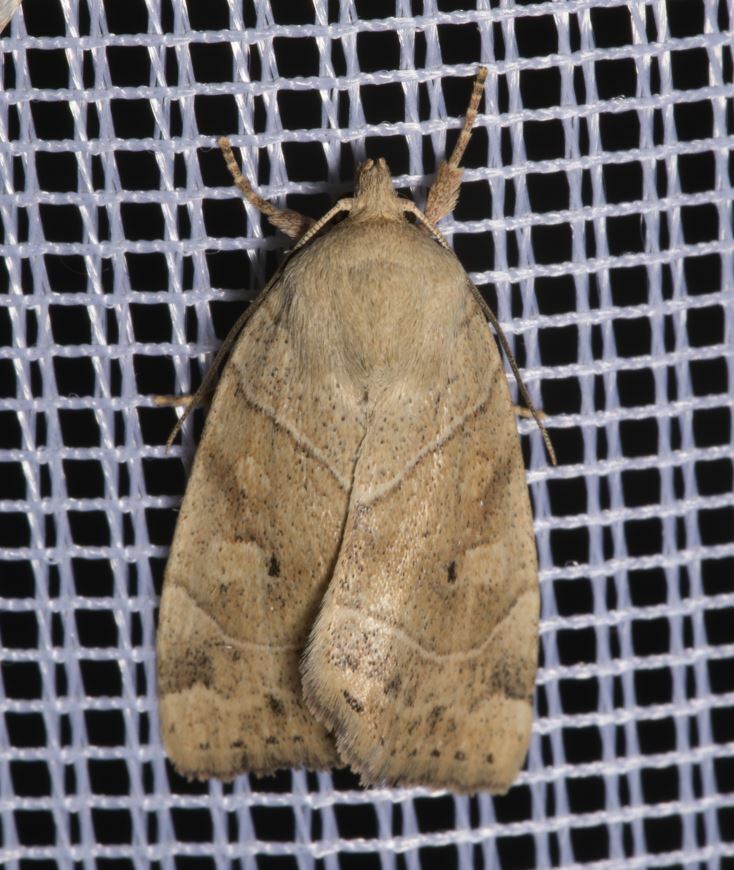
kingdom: Animalia
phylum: Arthropoda
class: Insecta
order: Lepidoptera
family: Noctuidae
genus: Cosmia
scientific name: Cosmia trapezina
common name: Dun-bar
